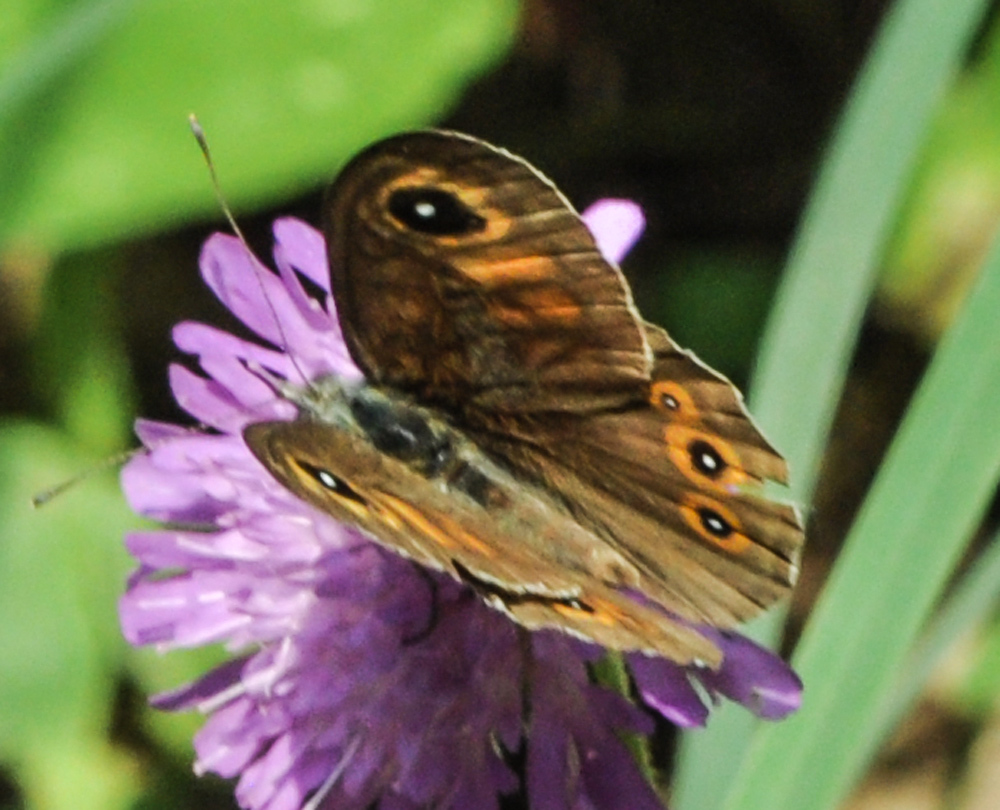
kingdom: Animalia
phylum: Arthropoda
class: Insecta
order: Lepidoptera
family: Nymphalidae
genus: Pararge
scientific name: Pararge Lasiommata maera
